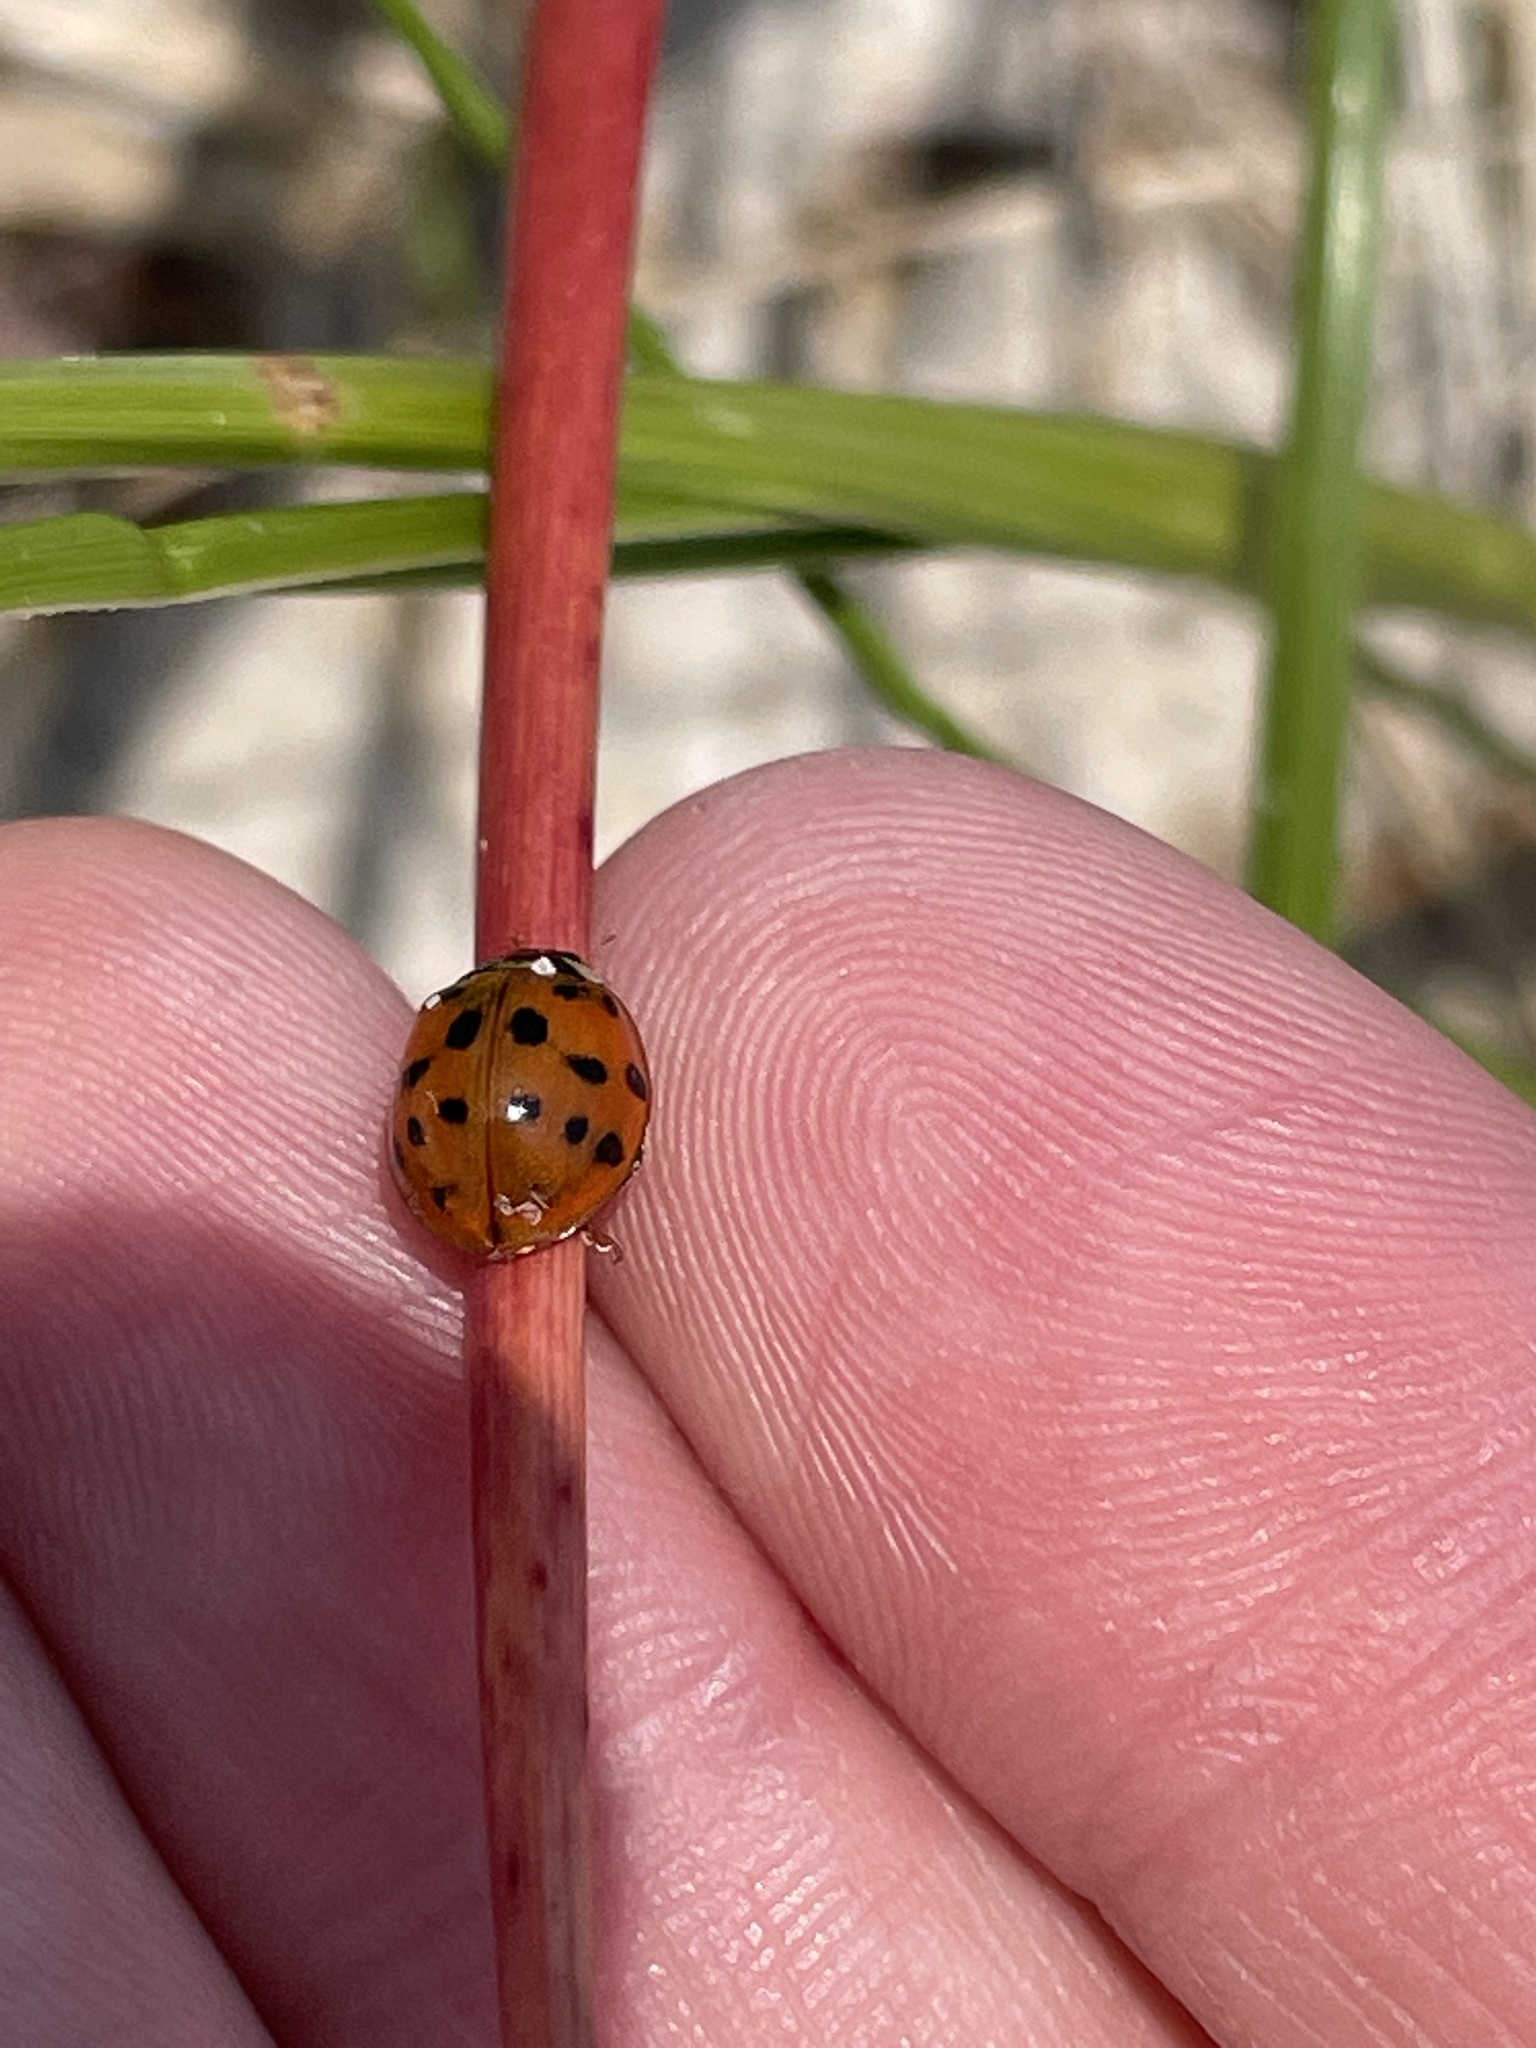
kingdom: Animalia
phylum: Arthropoda
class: Insecta
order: Coleoptera
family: Coccinellidae
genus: Harmonia
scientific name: Harmonia axyridis
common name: Harlequin ladybird
